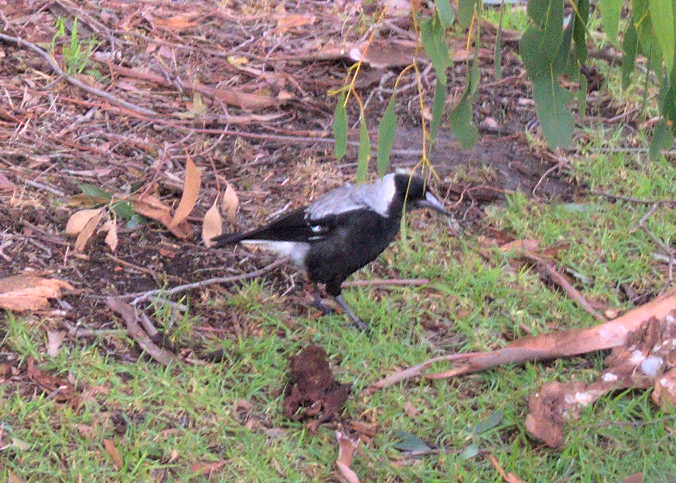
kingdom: Animalia
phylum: Chordata
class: Aves
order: Passeriformes
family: Cracticidae
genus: Gymnorhina
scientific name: Gymnorhina tibicen
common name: Australian magpie
